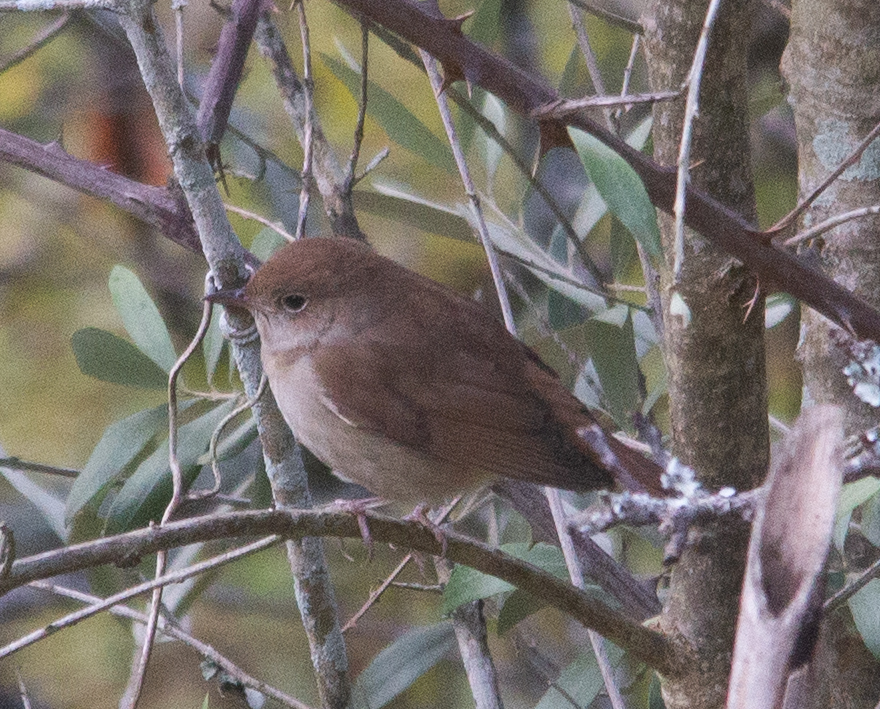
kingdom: Animalia
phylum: Chordata
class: Aves
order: Passeriformes
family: Muscicapidae
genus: Luscinia
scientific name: Luscinia megarhynchos
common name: Common nightingale
